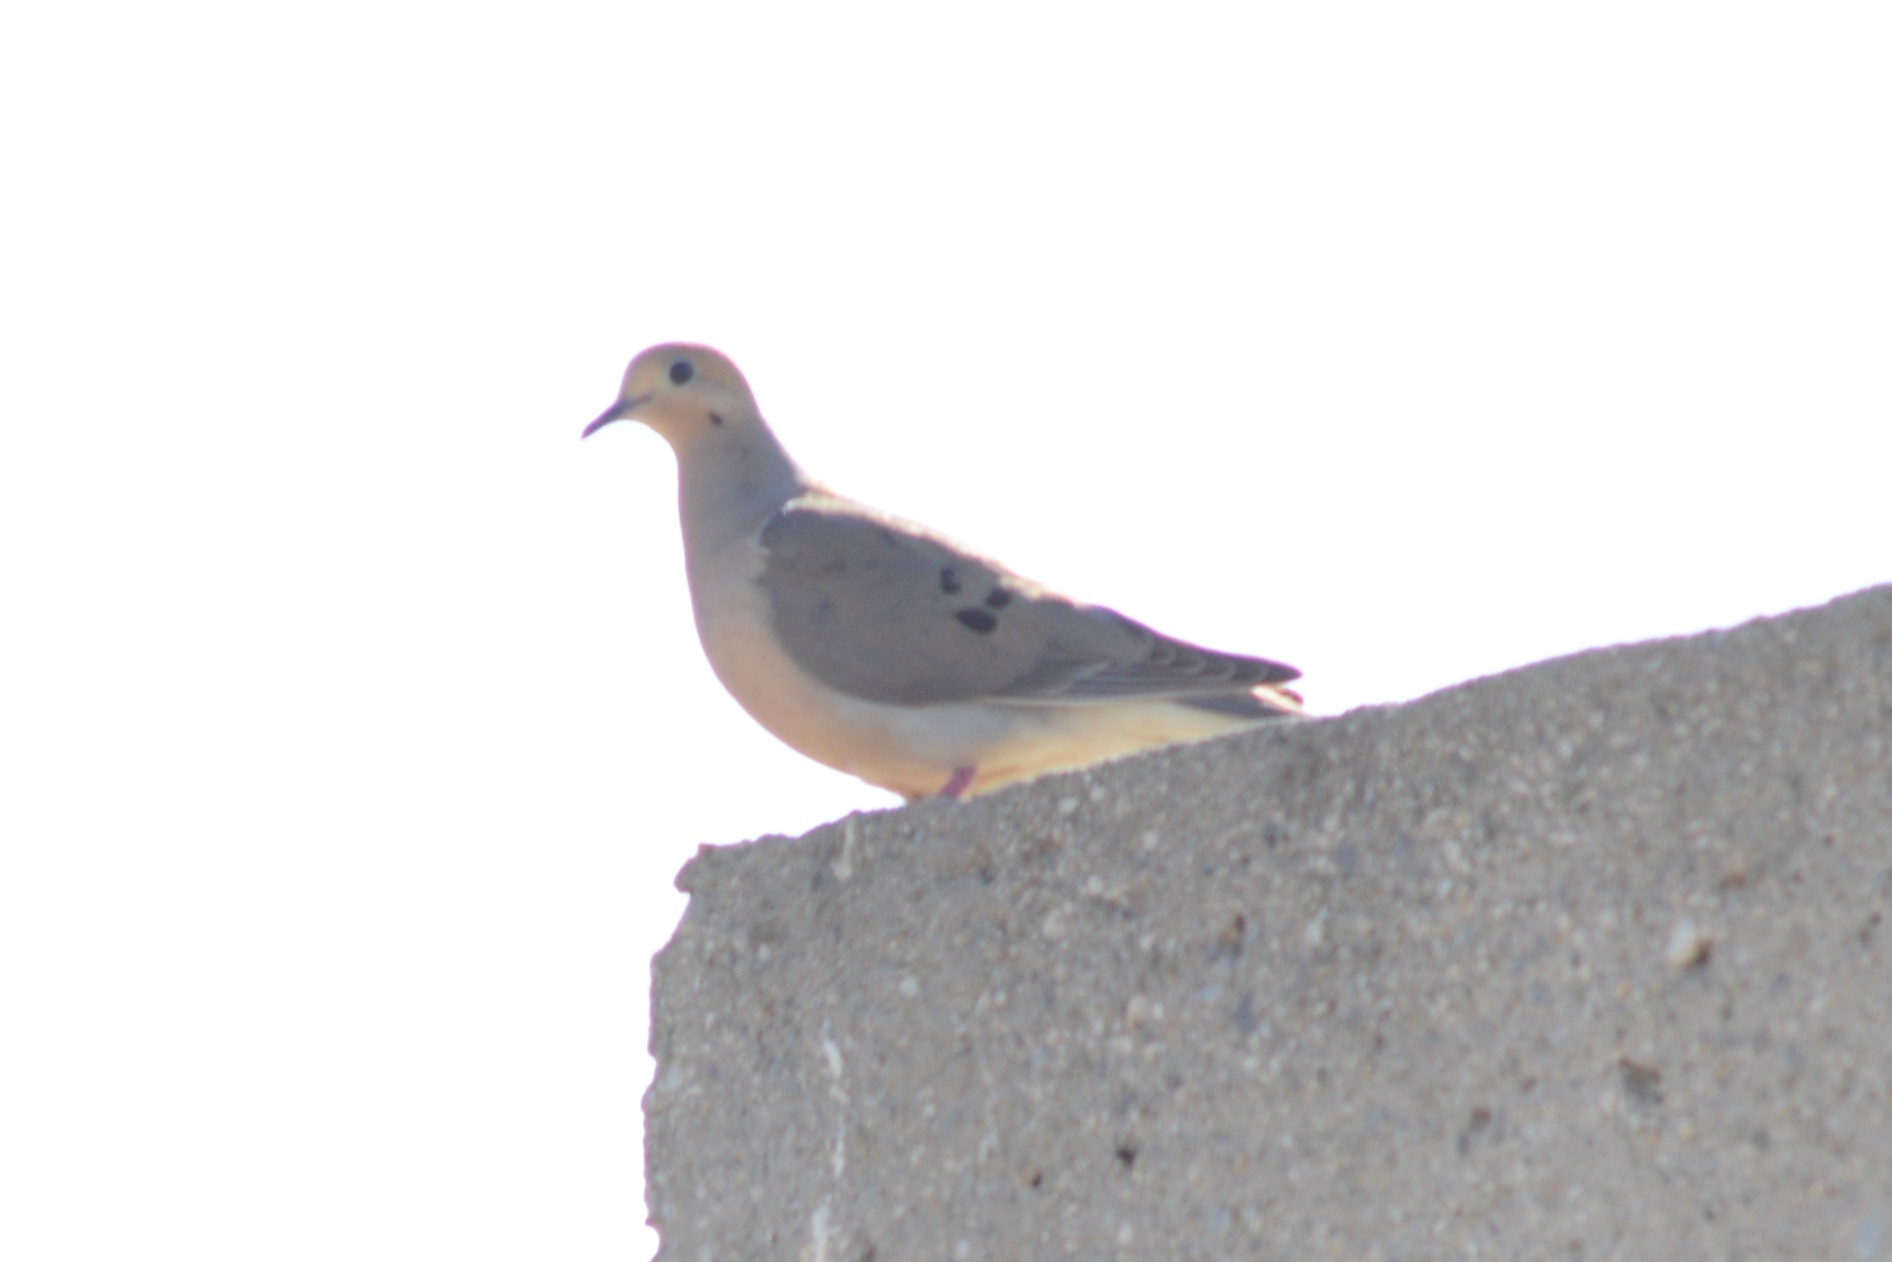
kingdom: Animalia
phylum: Chordata
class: Aves
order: Columbiformes
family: Columbidae
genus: Zenaida
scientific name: Zenaida macroura
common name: Mourning dove
